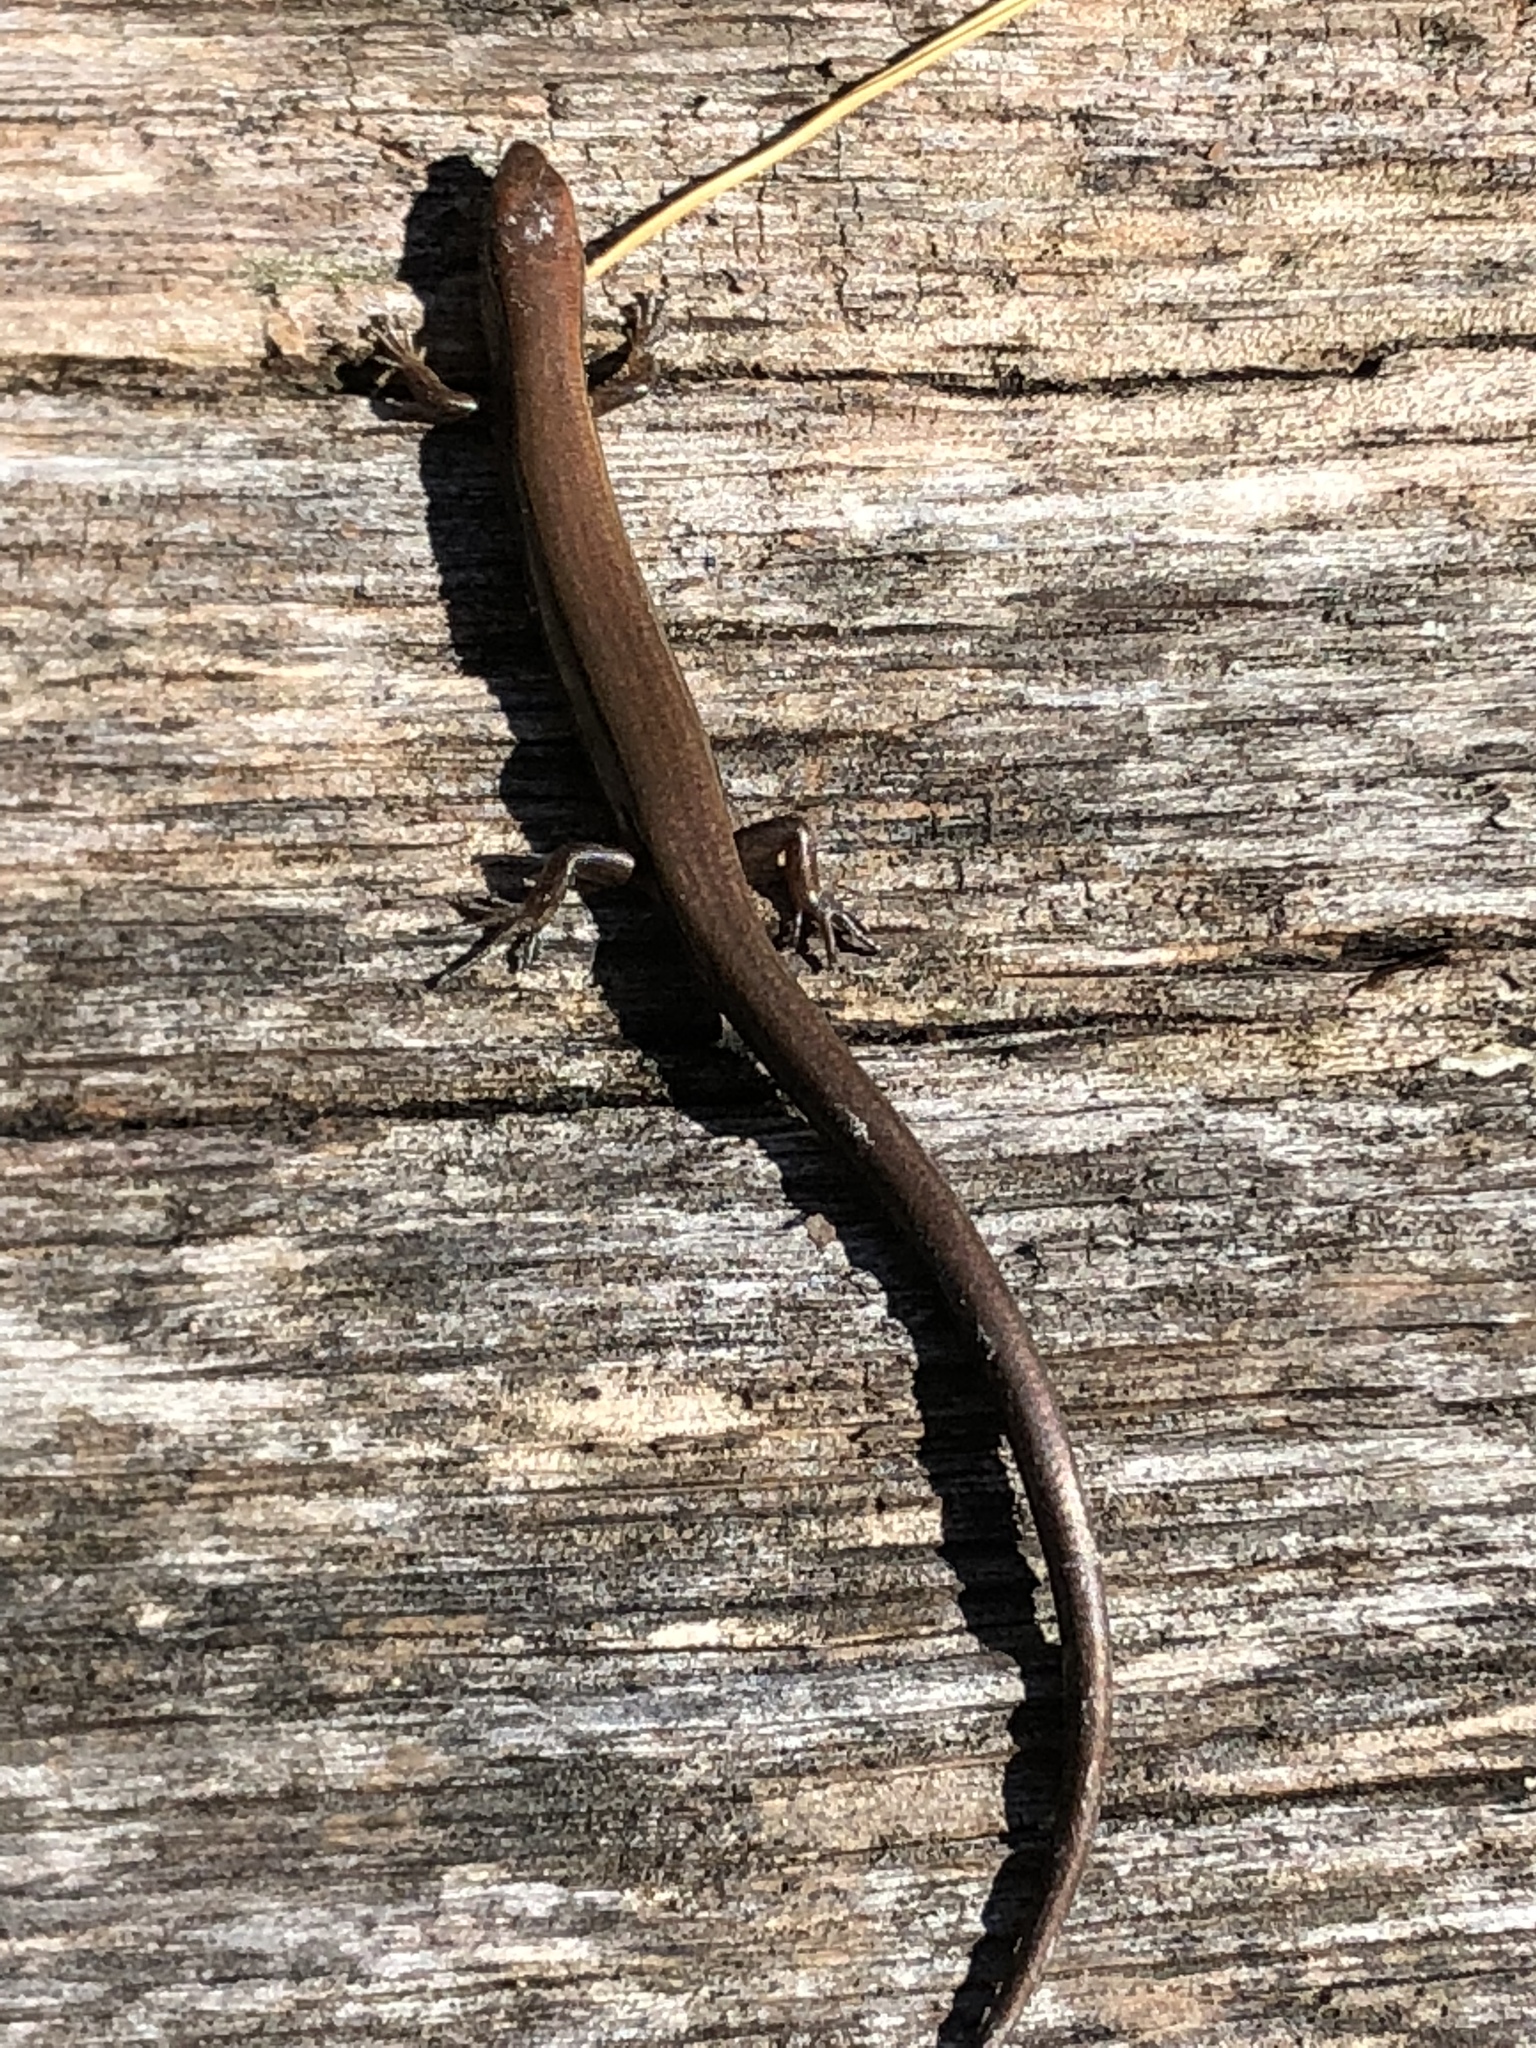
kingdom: Animalia
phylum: Chordata
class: Squamata
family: Scincidae
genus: Scincella
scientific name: Scincella lateralis
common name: Ground skink
